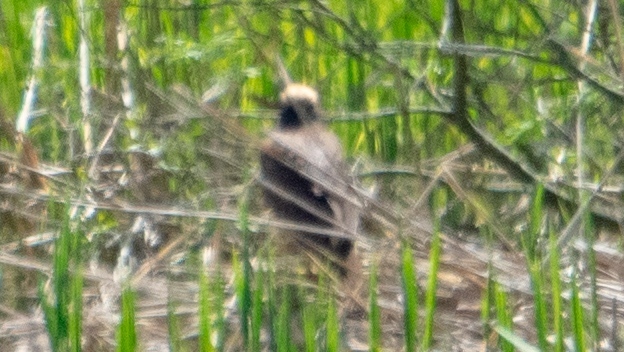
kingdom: Animalia
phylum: Chordata
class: Aves
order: Accipitriformes
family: Accipitridae
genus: Circus
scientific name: Circus aeruginosus
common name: Western marsh harrier
